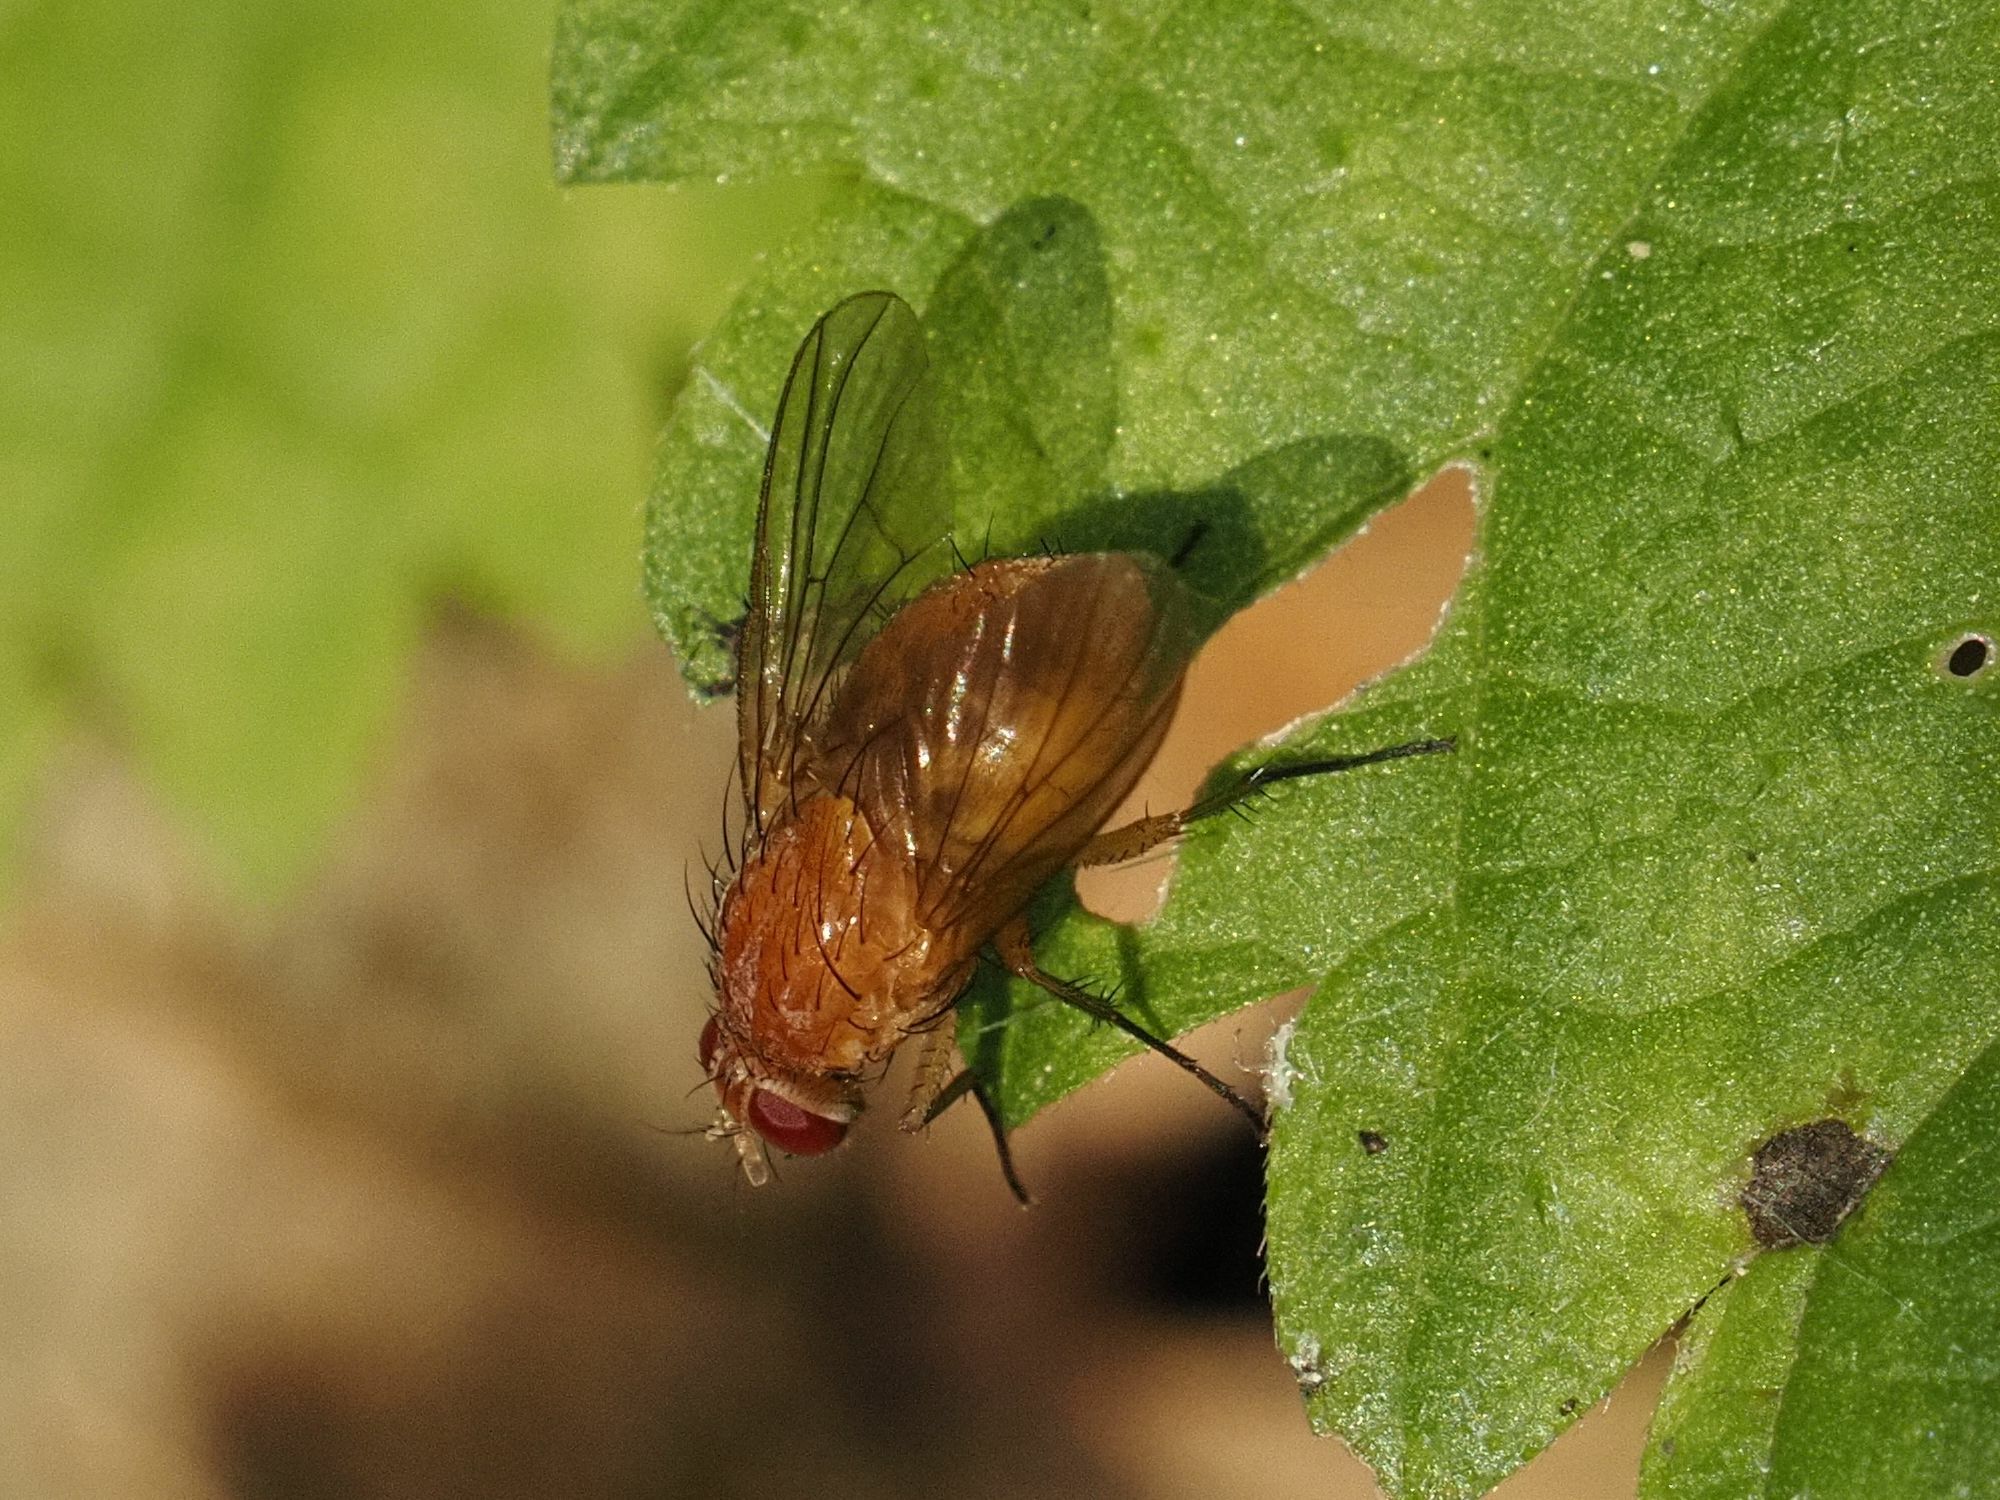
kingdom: Animalia
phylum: Arthropoda
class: Insecta
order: Diptera
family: Muscidae
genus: Phaonia
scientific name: Phaonia pallida
